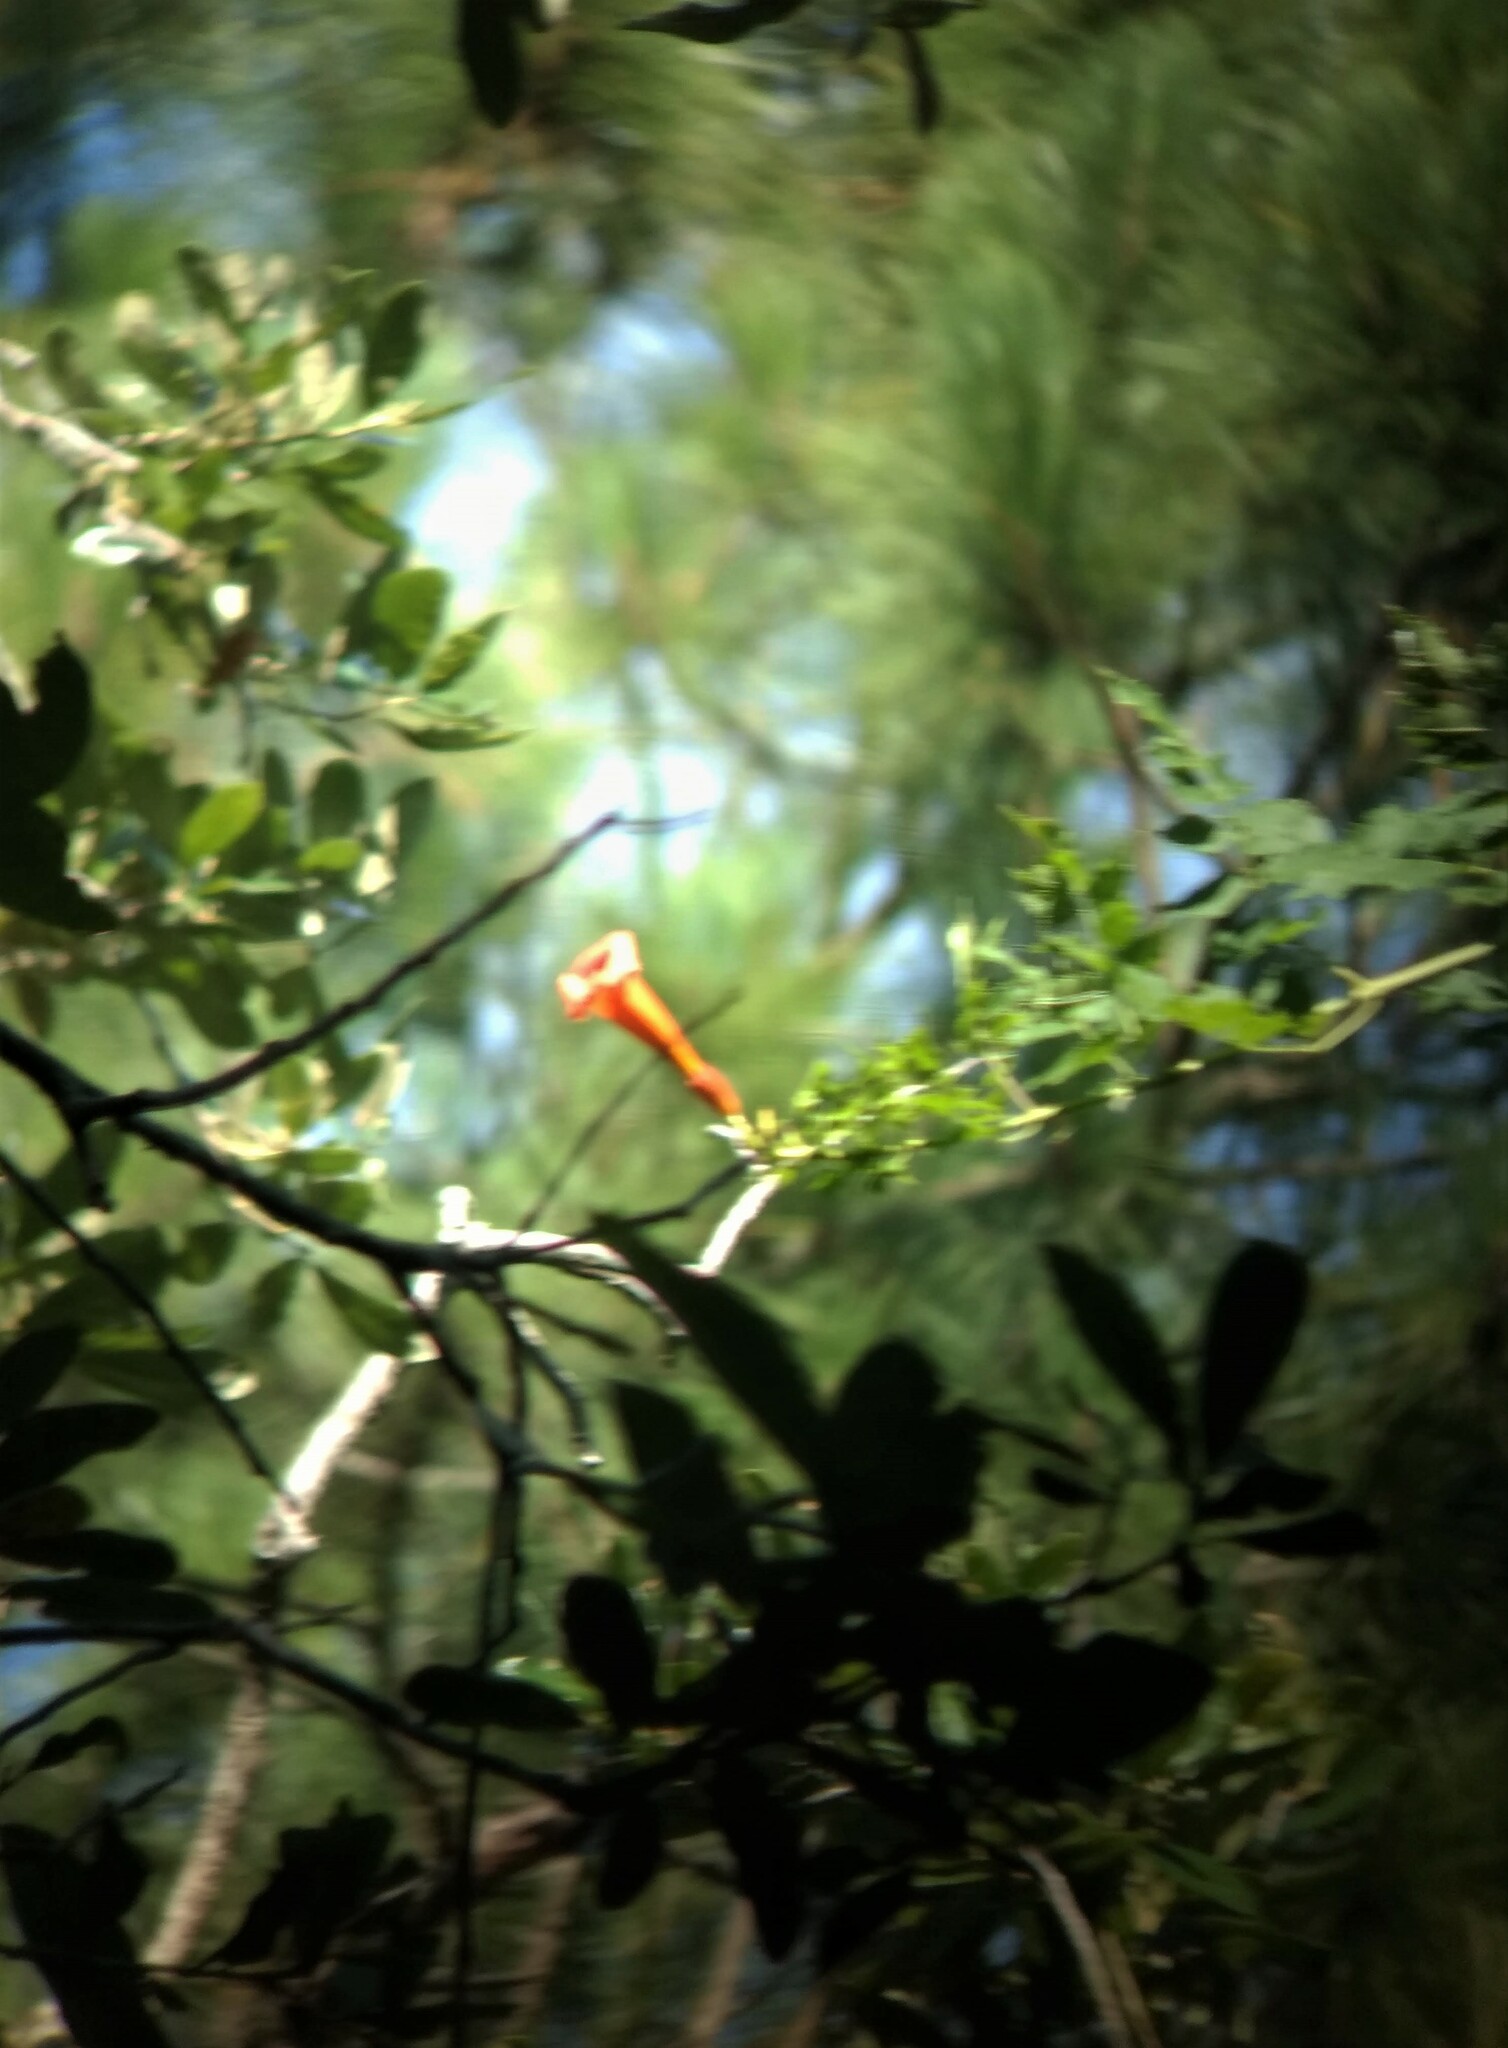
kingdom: Plantae
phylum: Tracheophyta
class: Magnoliopsida
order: Lamiales
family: Bignoniaceae
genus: Campsis
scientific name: Campsis radicans
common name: Trumpet-creeper
